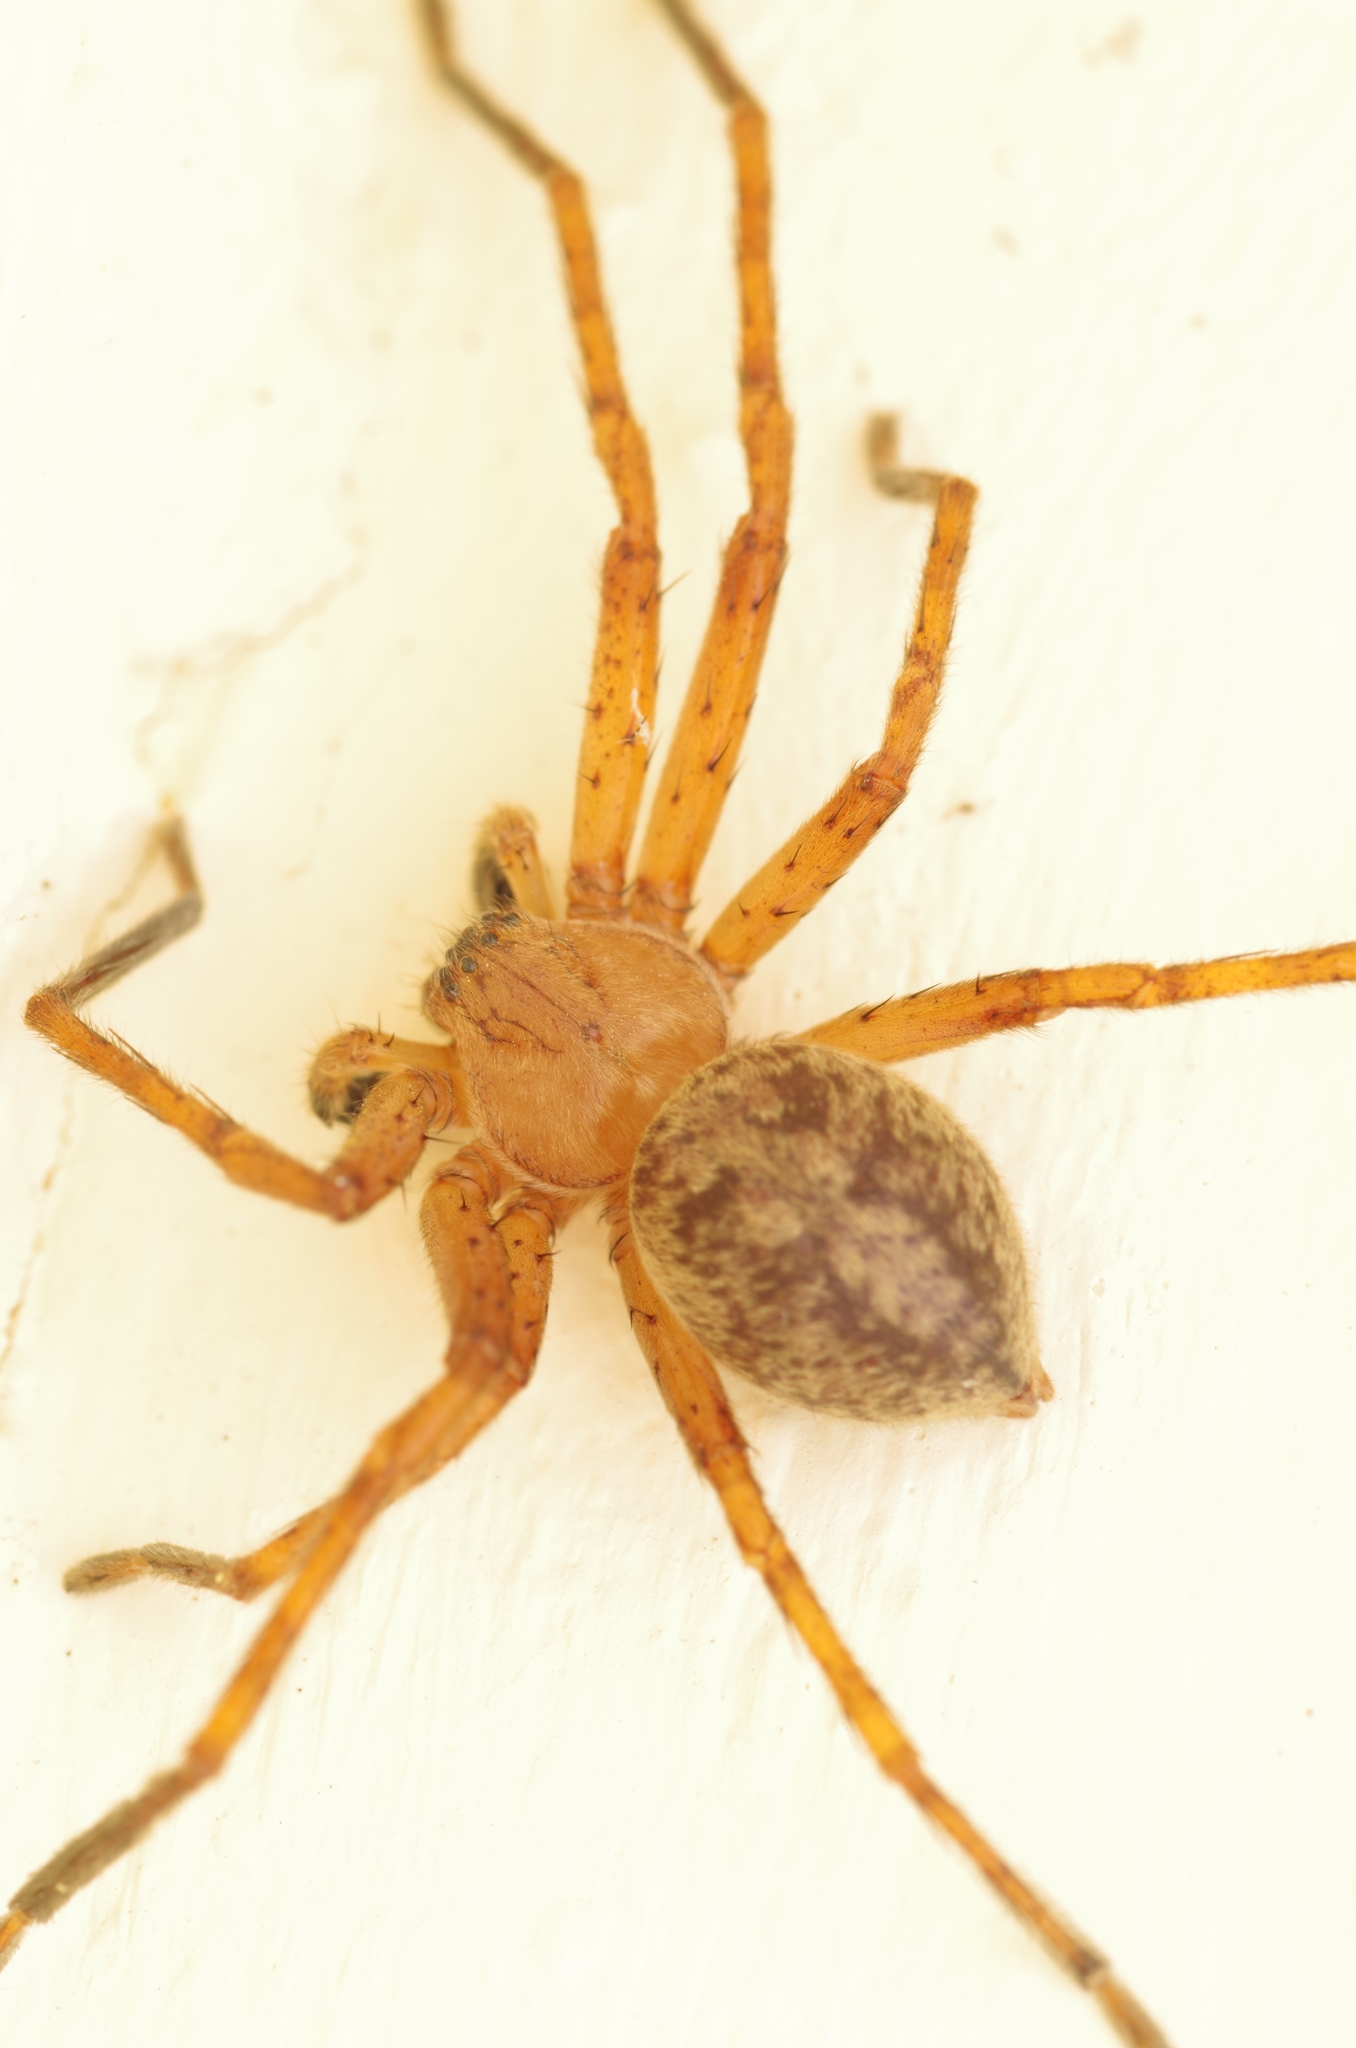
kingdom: Animalia
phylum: Arthropoda
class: Arachnida
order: Araneae
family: Sparassidae
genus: Olios
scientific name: Olios argelasius
